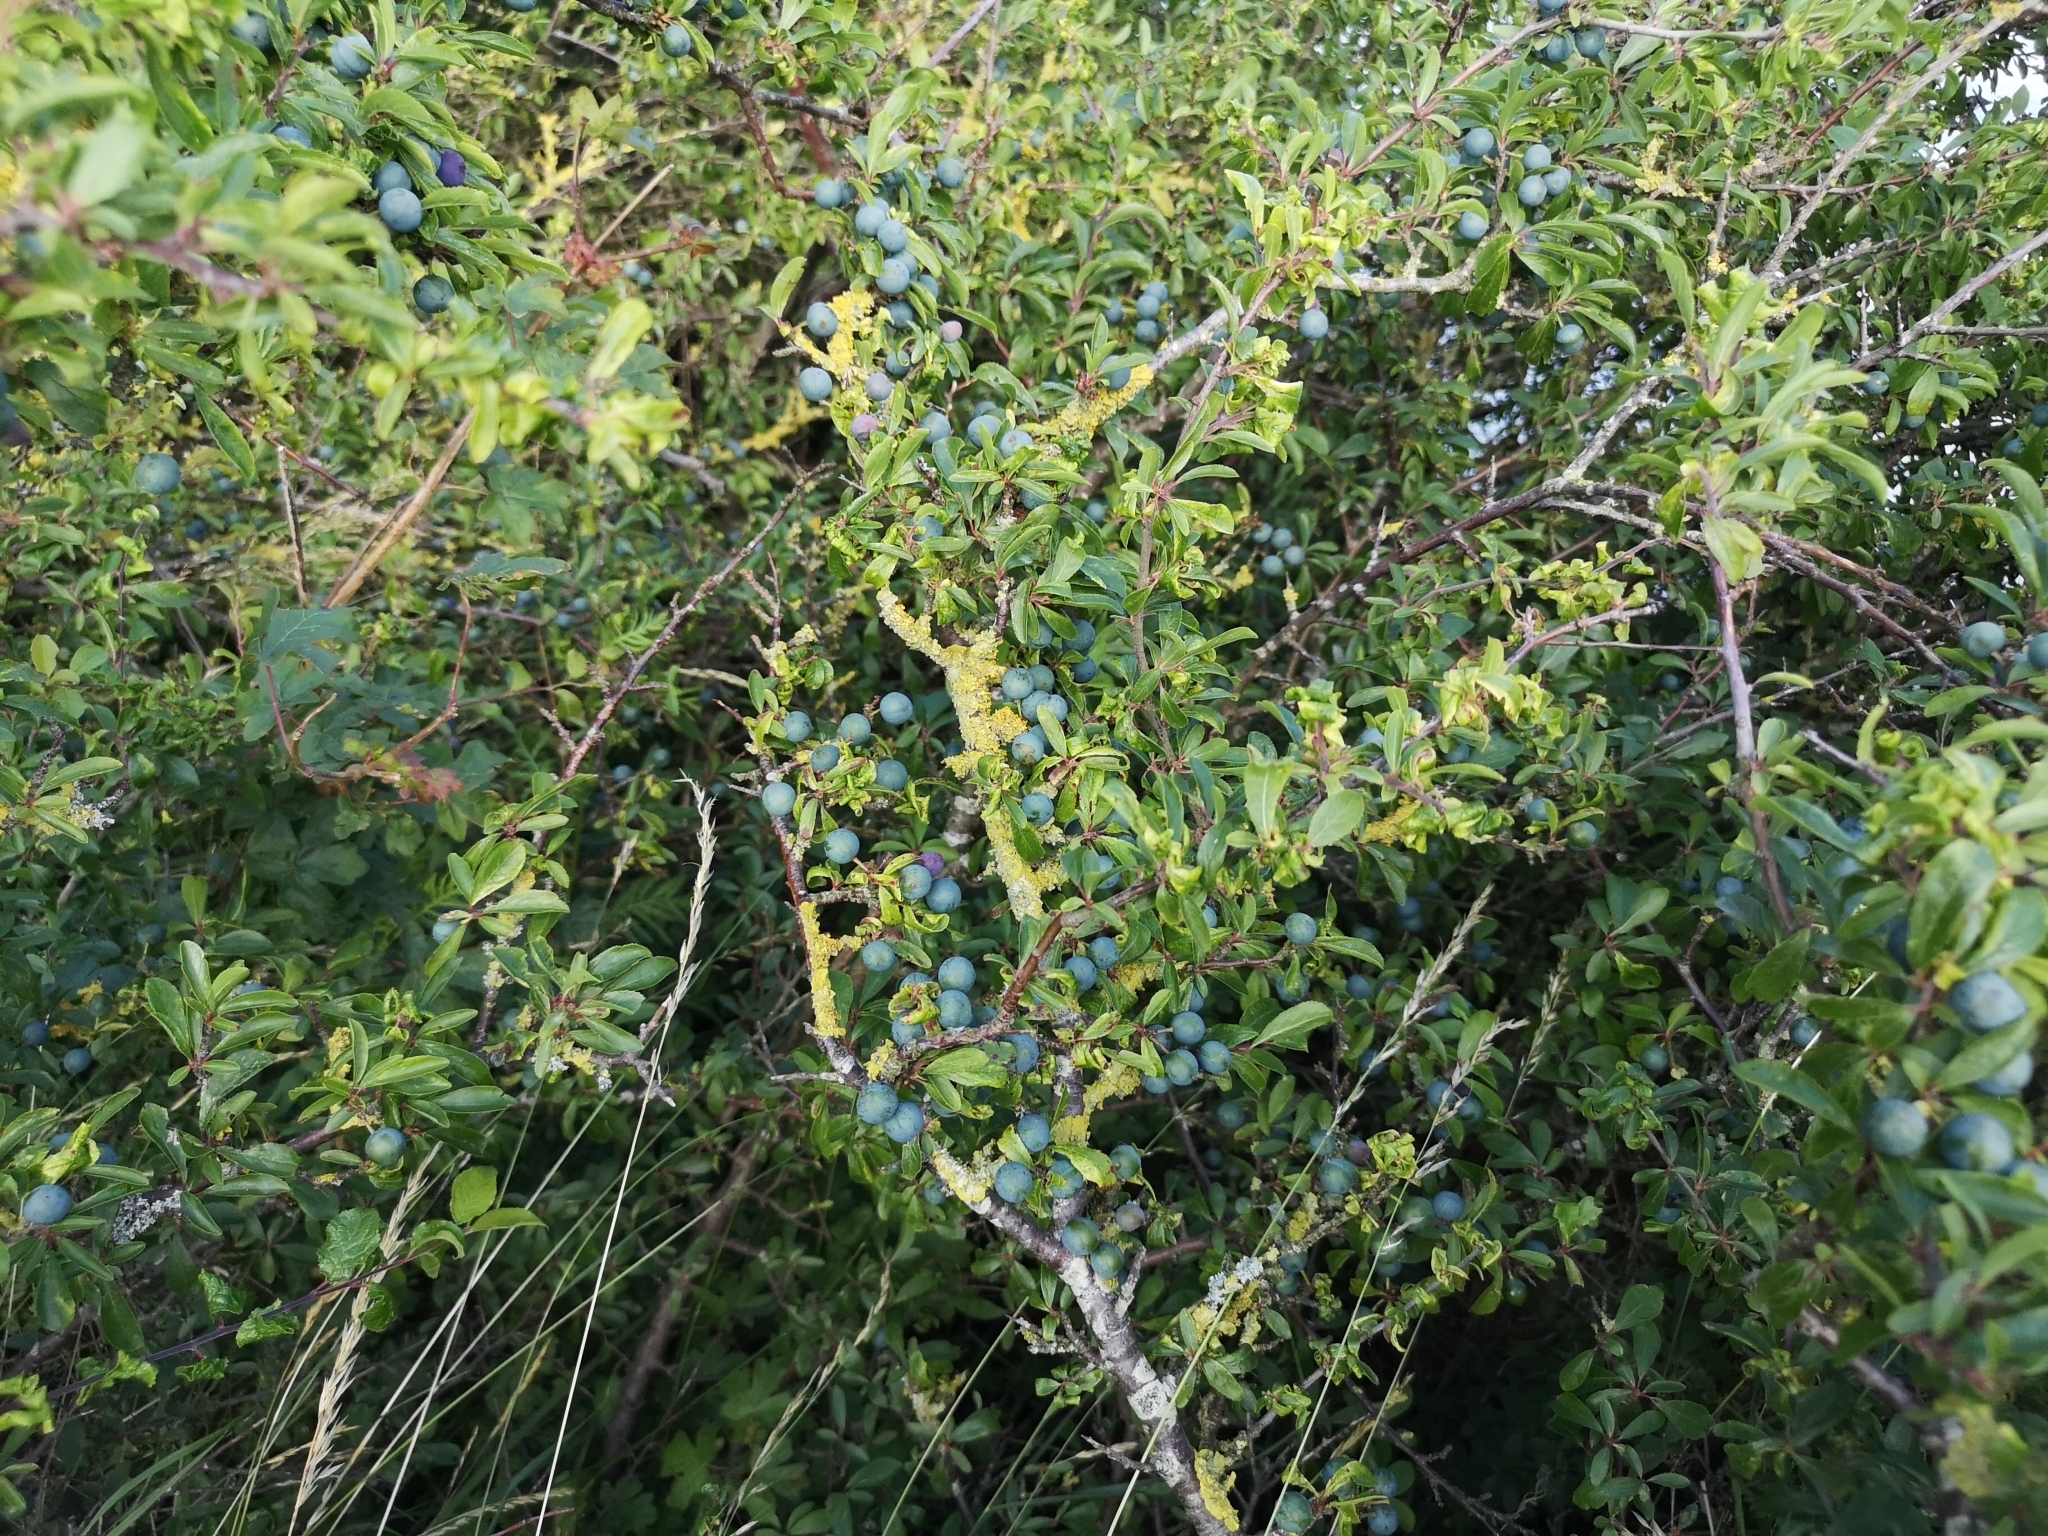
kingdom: Plantae
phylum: Tracheophyta
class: Magnoliopsida
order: Rosales
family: Rosaceae
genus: Prunus
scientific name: Prunus spinosa
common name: Blackthorn
